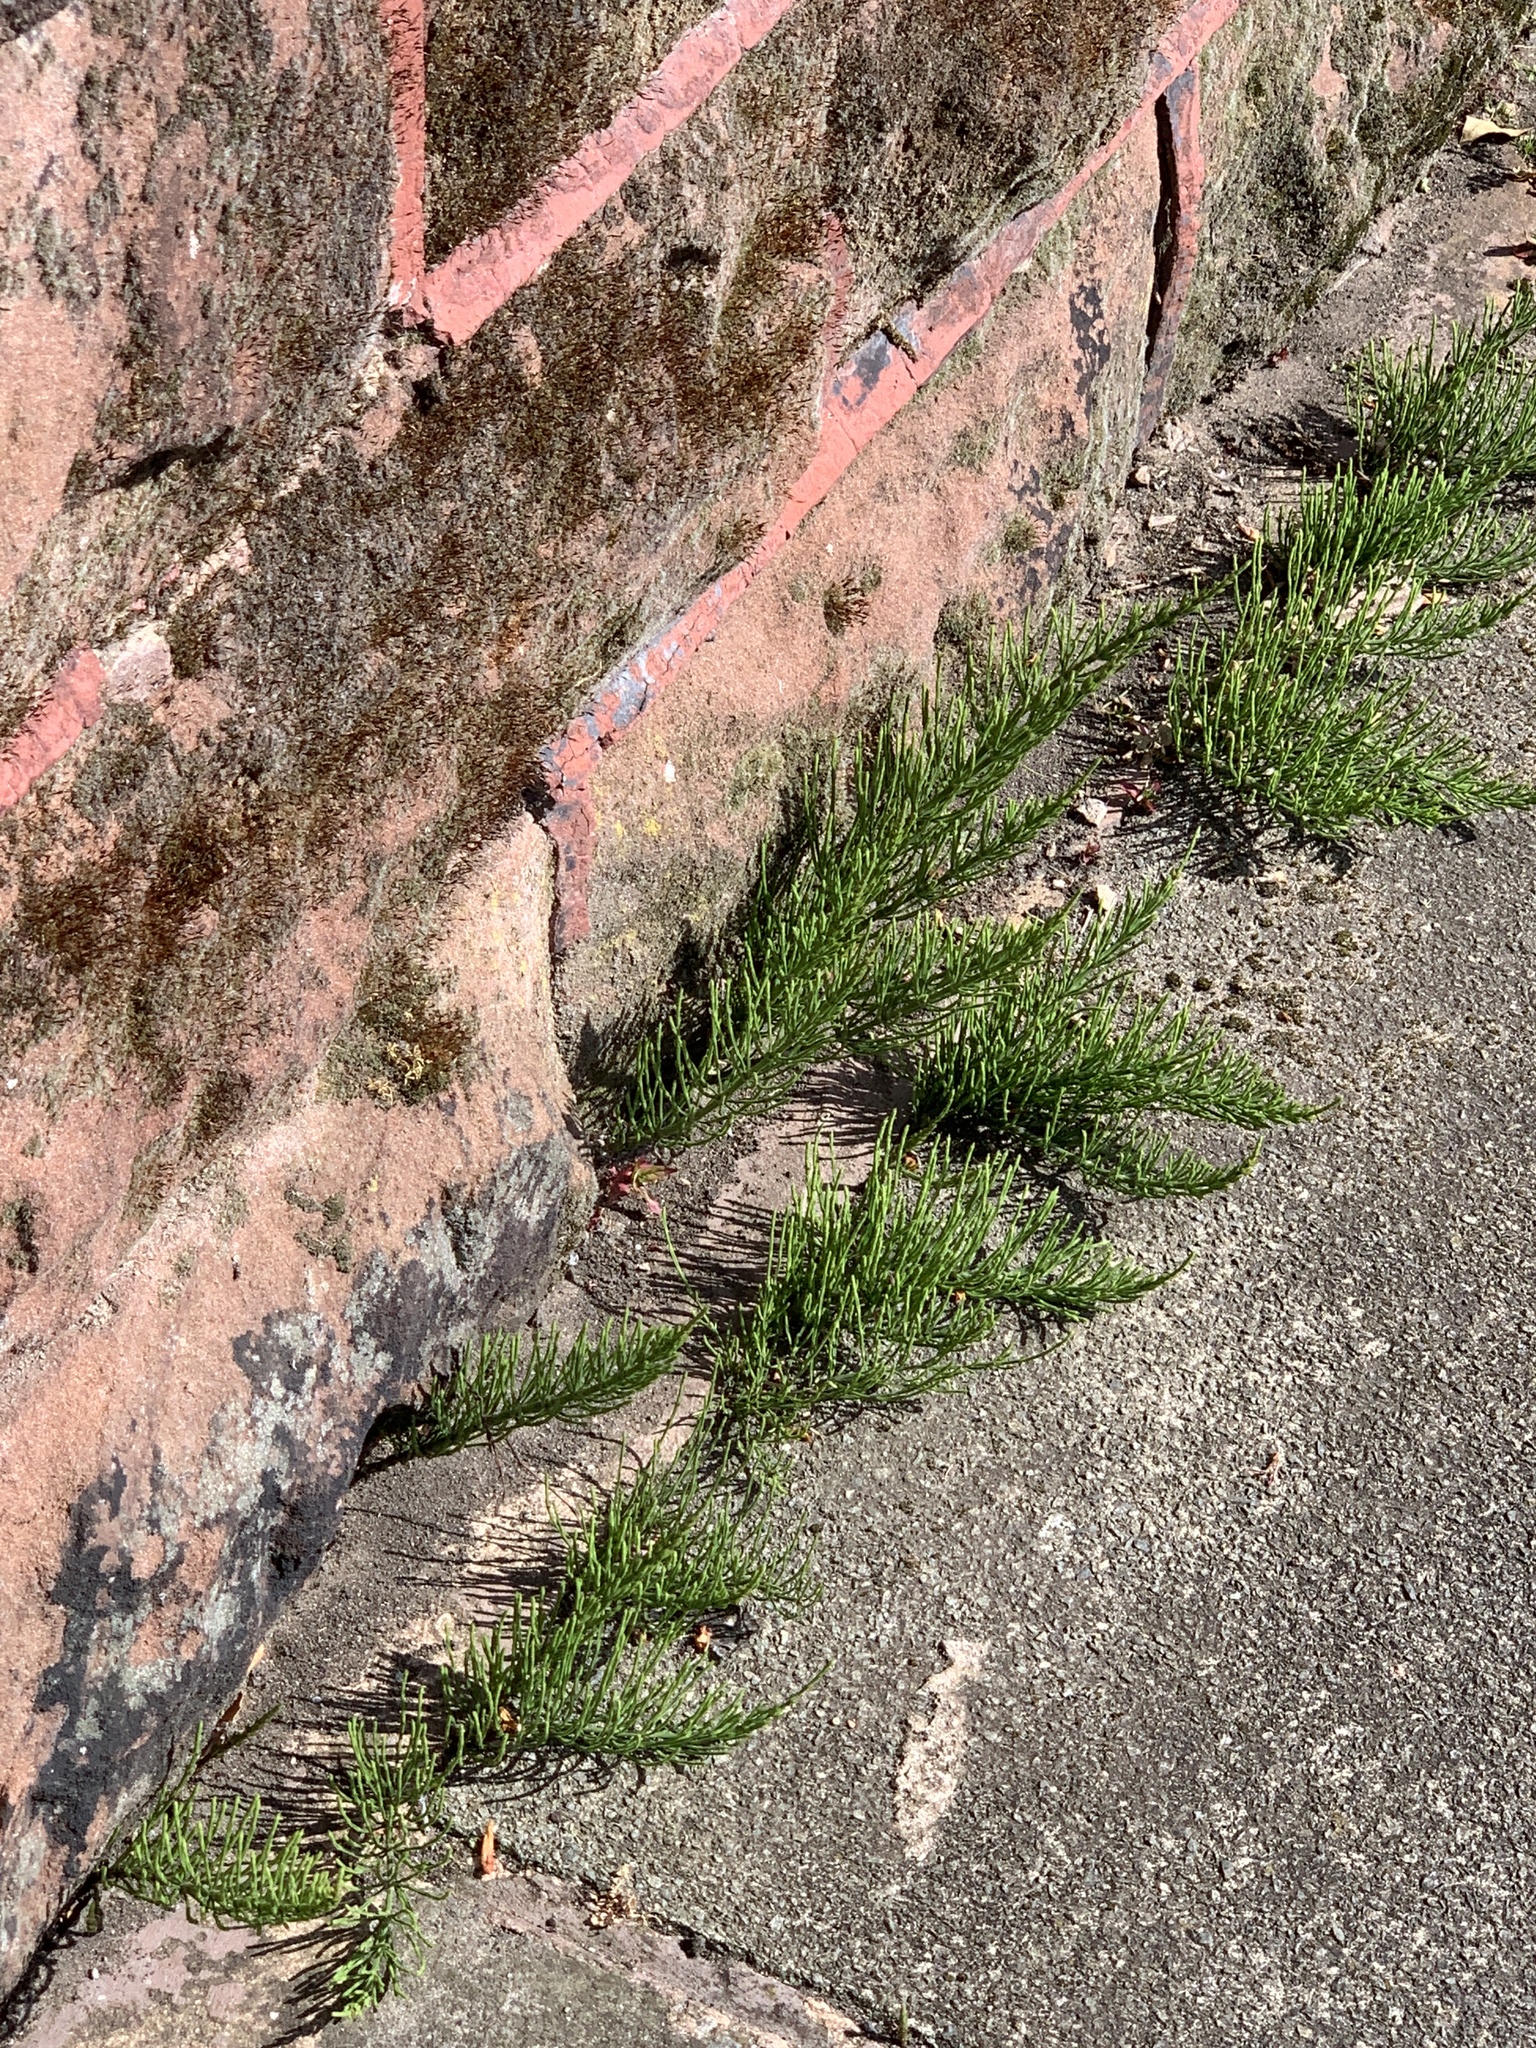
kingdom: Plantae
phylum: Tracheophyta
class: Polypodiopsida
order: Equisetales
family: Equisetaceae
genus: Equisetum
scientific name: Equisetum arvense
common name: Field horsetail
